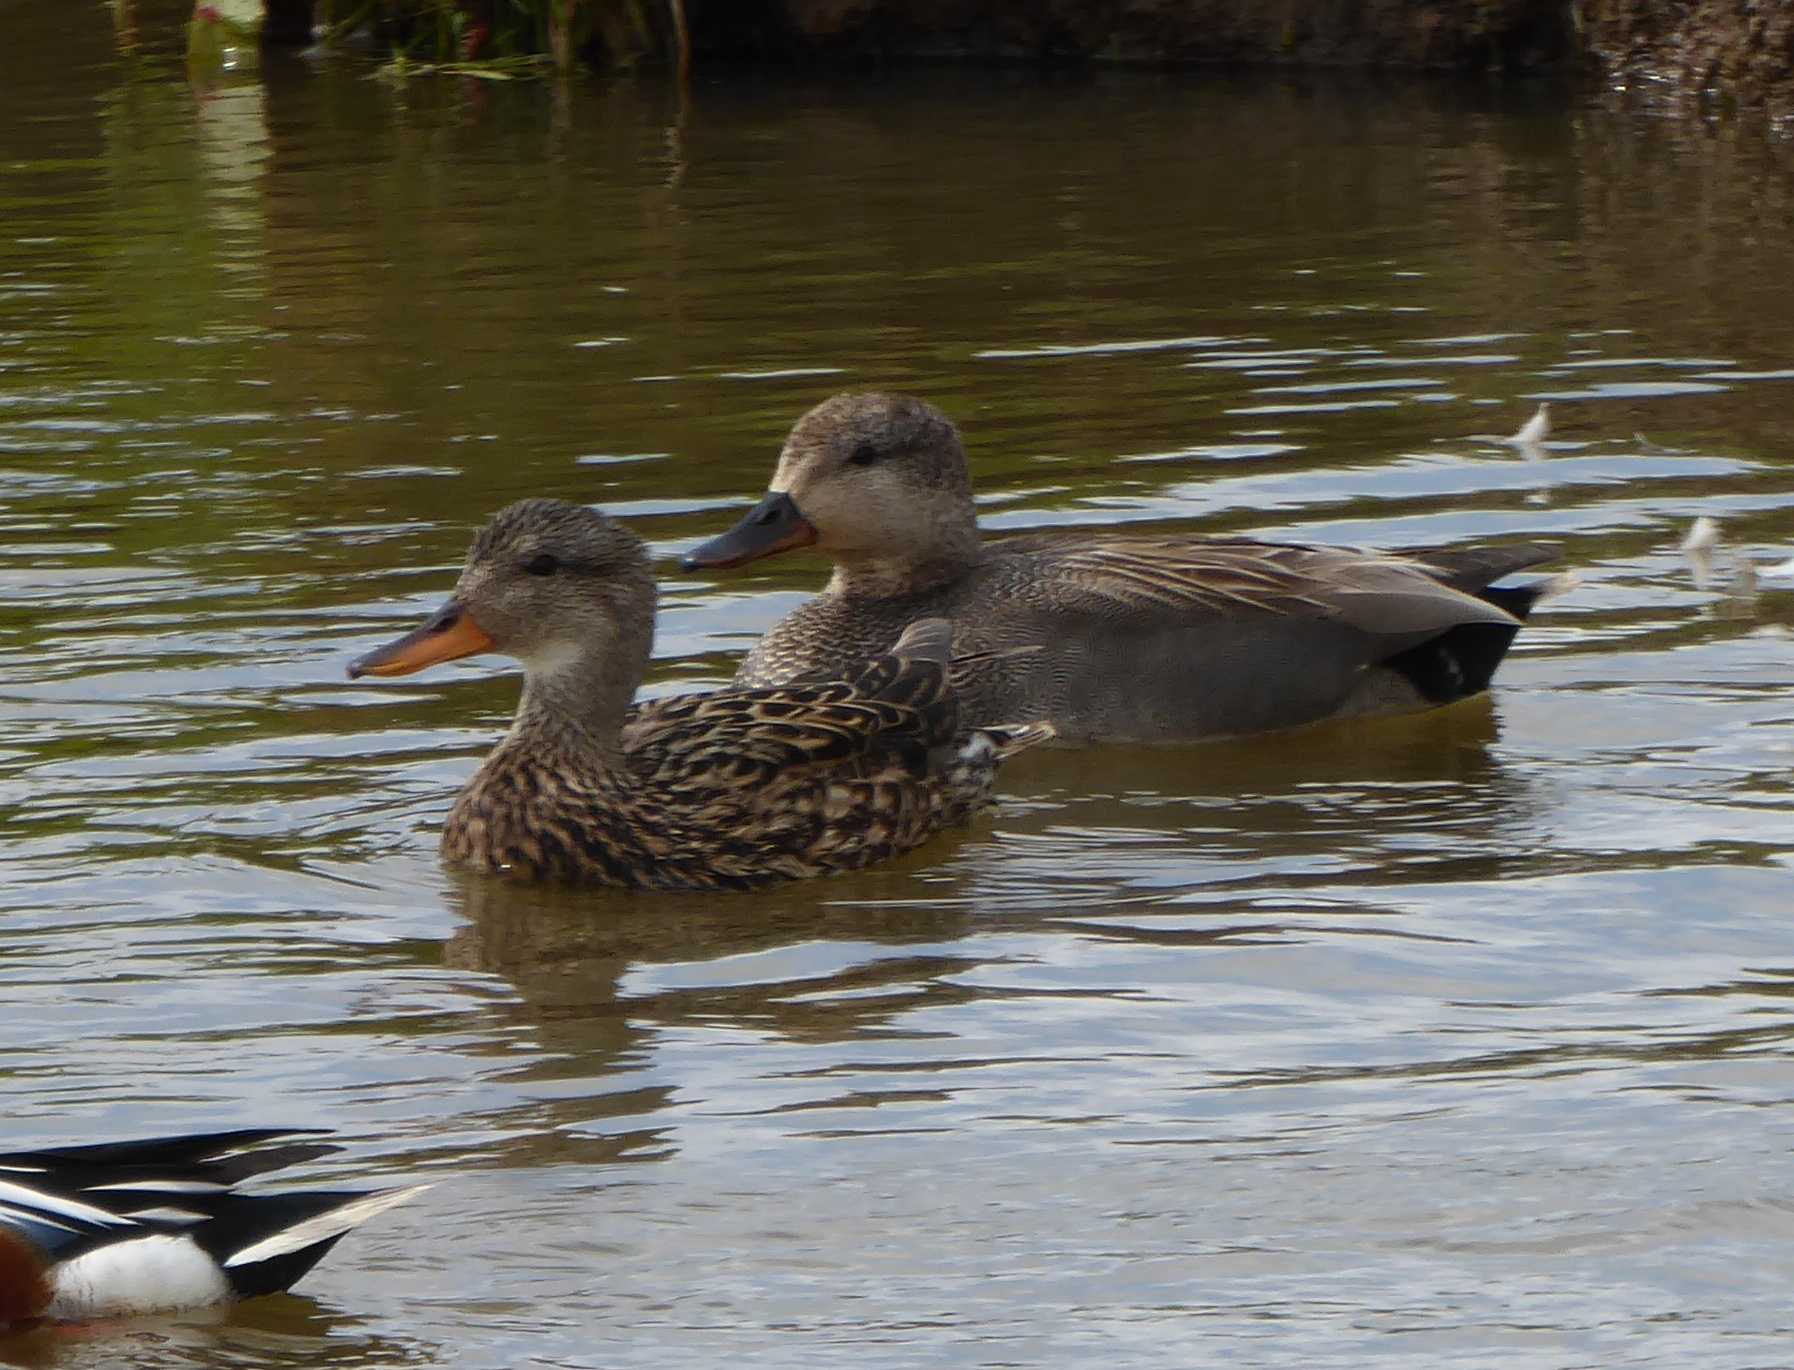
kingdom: Animalia
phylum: Chordata
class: Aves
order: Anseriformes
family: Anatidae
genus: Mareca
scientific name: Mareca strepera
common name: Gadwall
